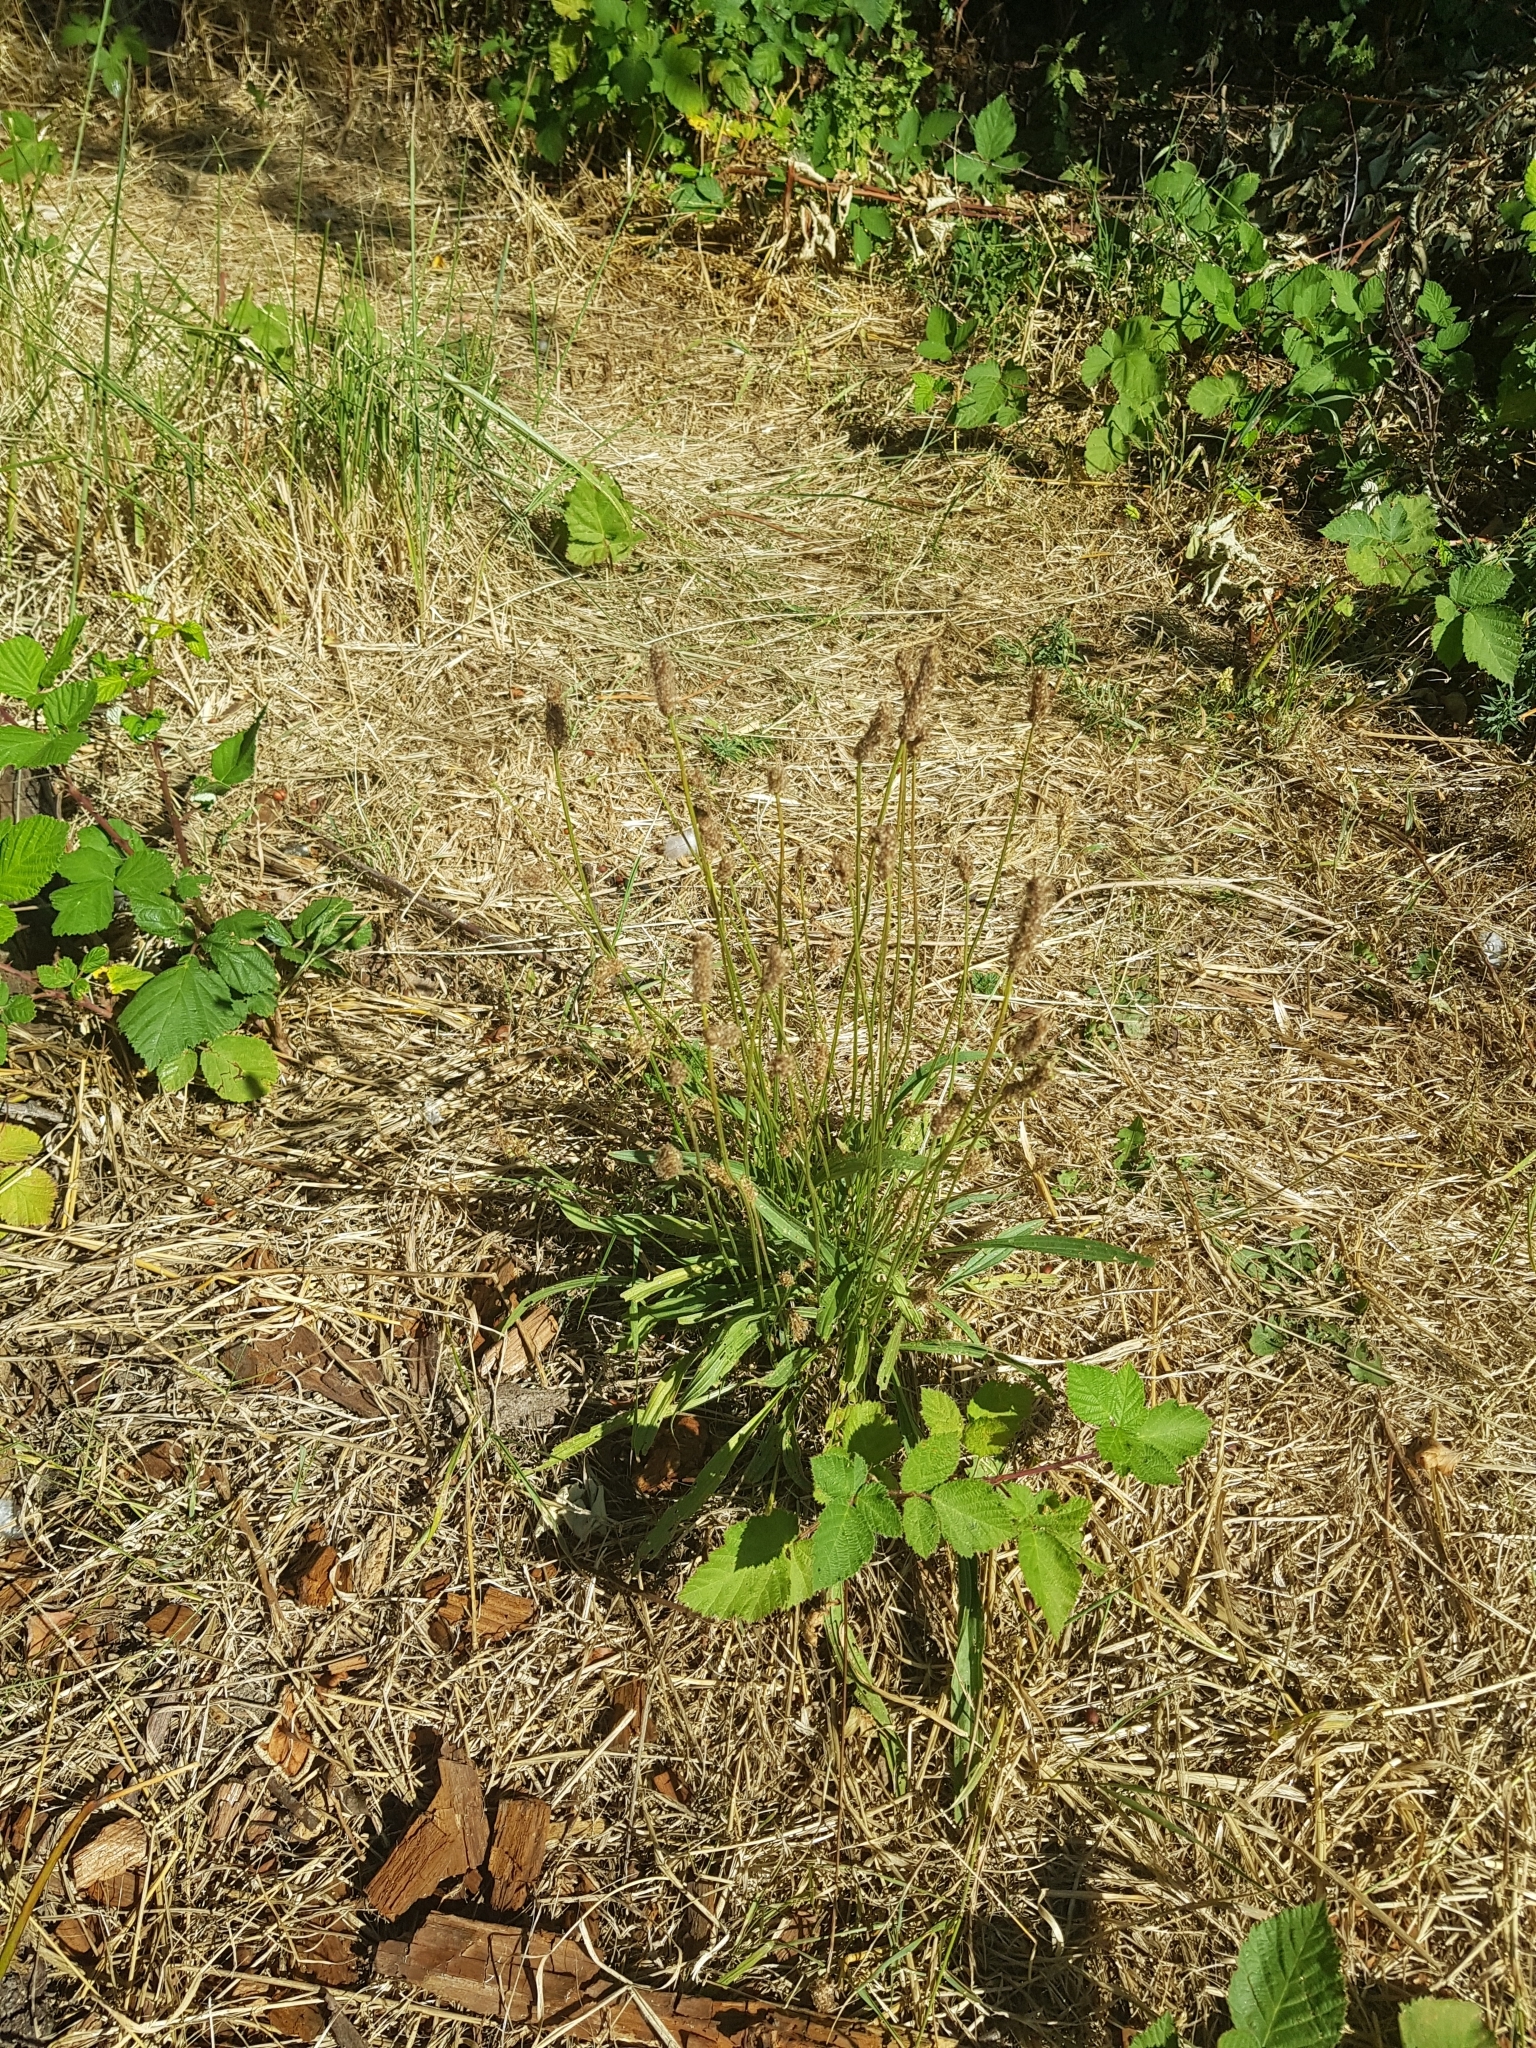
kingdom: Plantae
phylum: Tracheophyta
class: Magnoliopsida
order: Lamiales
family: Plantaginaceae
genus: Plantago
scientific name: Plantago lanceolata
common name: Ribwort plantain
